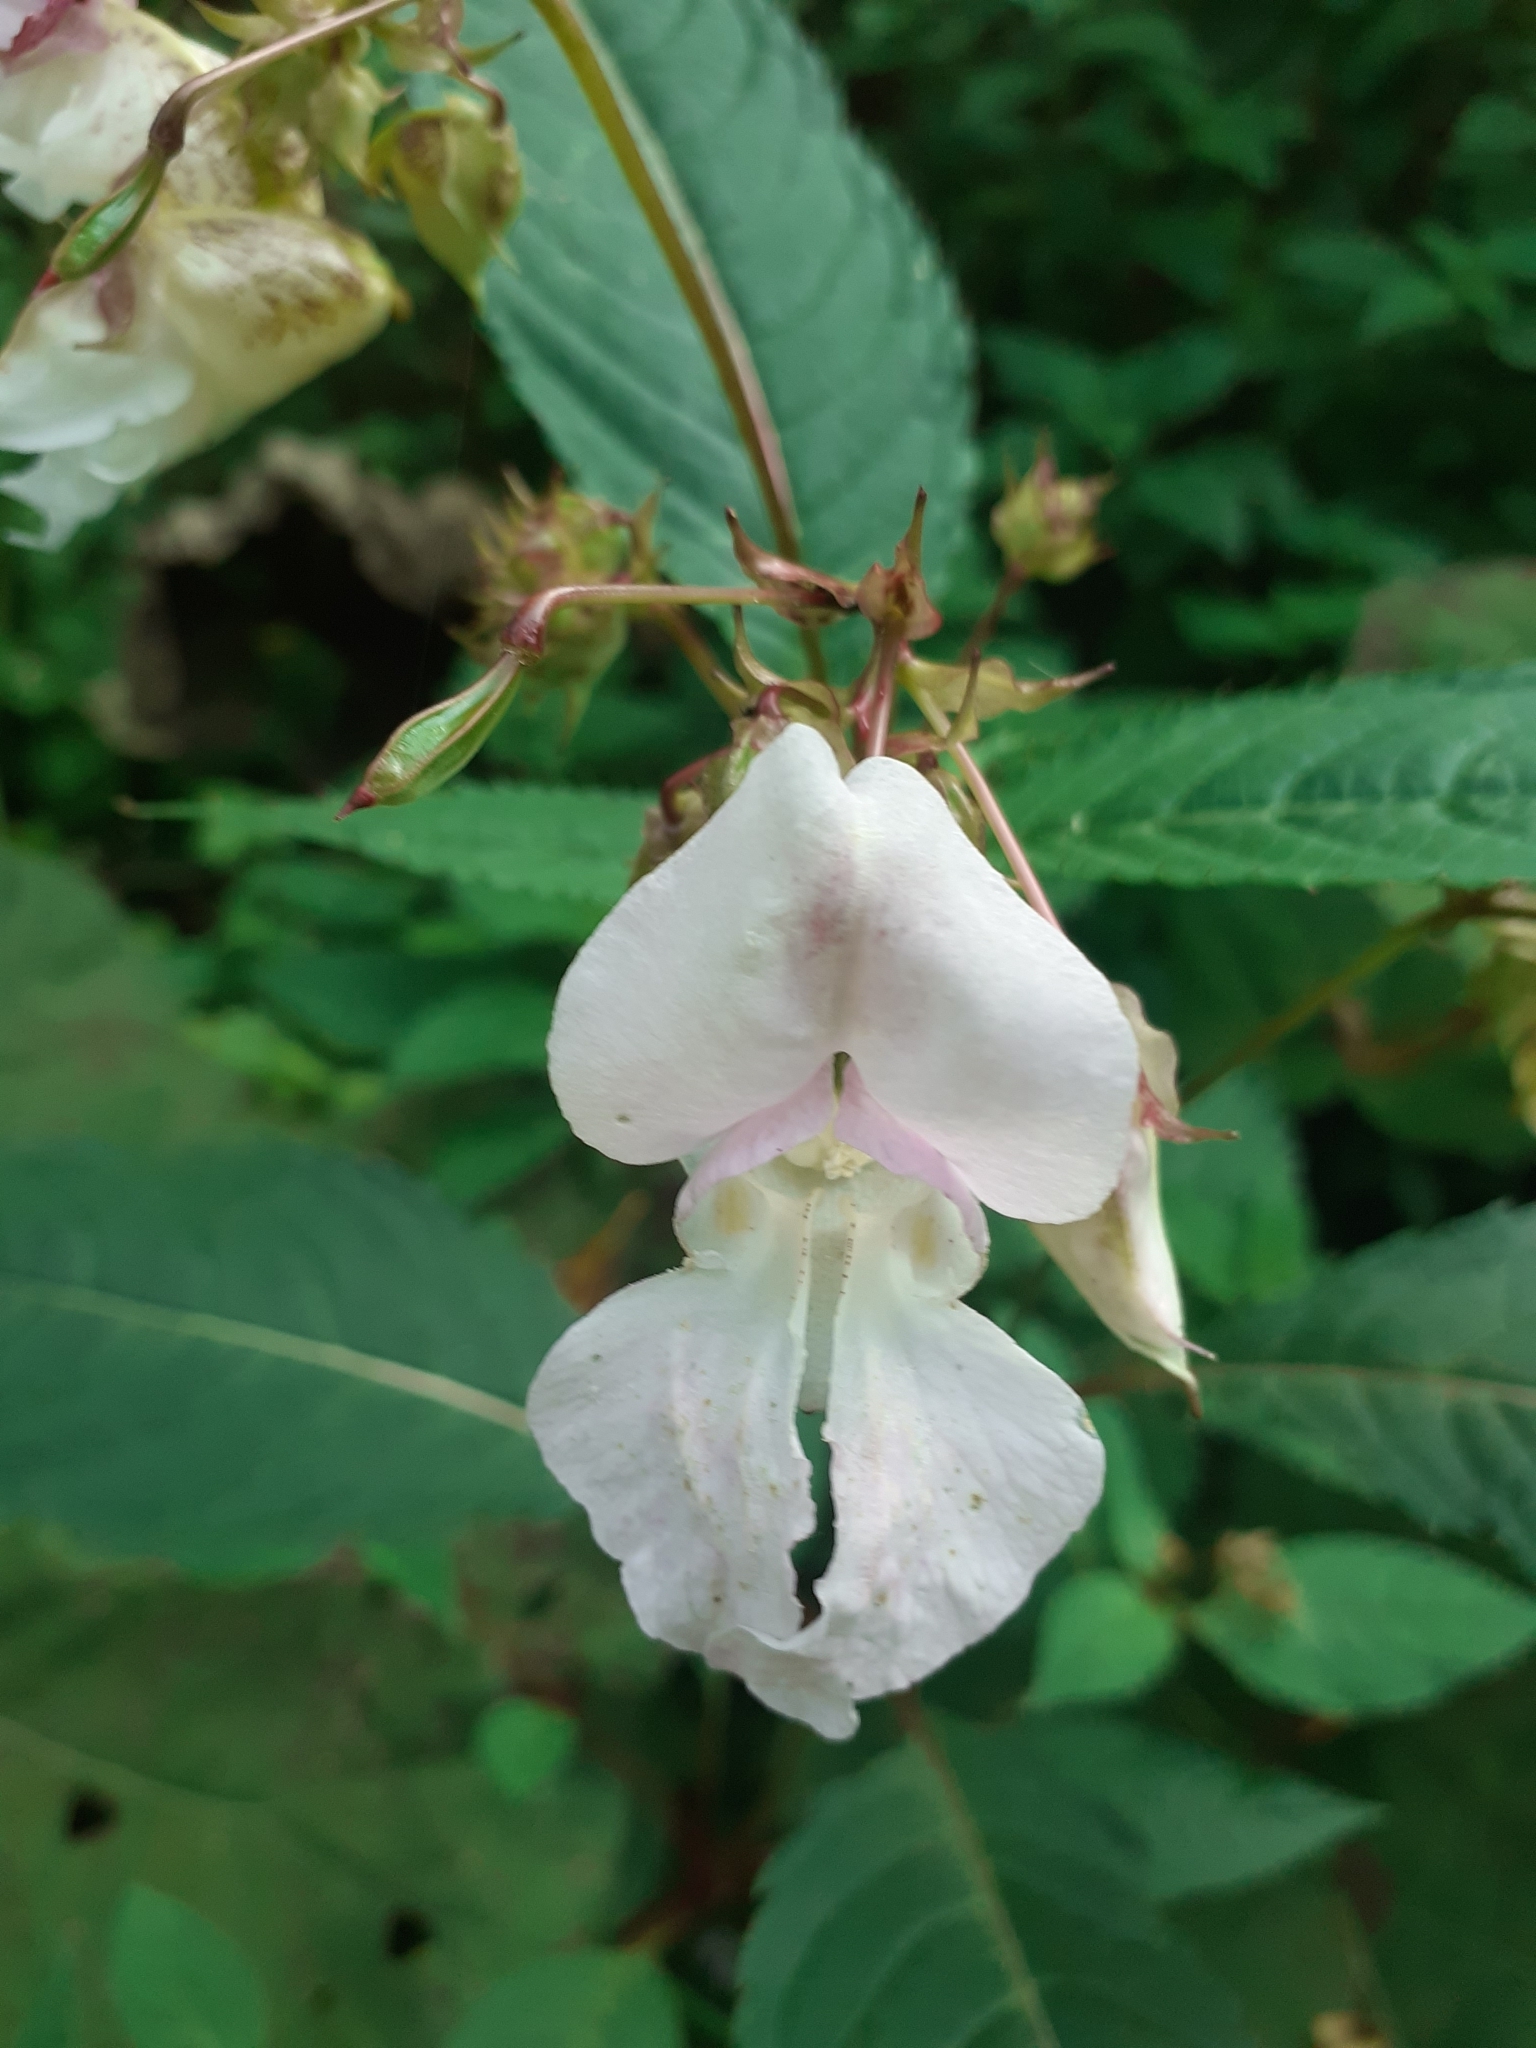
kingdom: Plantae
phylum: Tracheophyta
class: Magnoliopsida
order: Ericales
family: Balsaminaceae
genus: Impatiens
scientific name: Impatiens glandulifera
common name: Himalayan balsam
